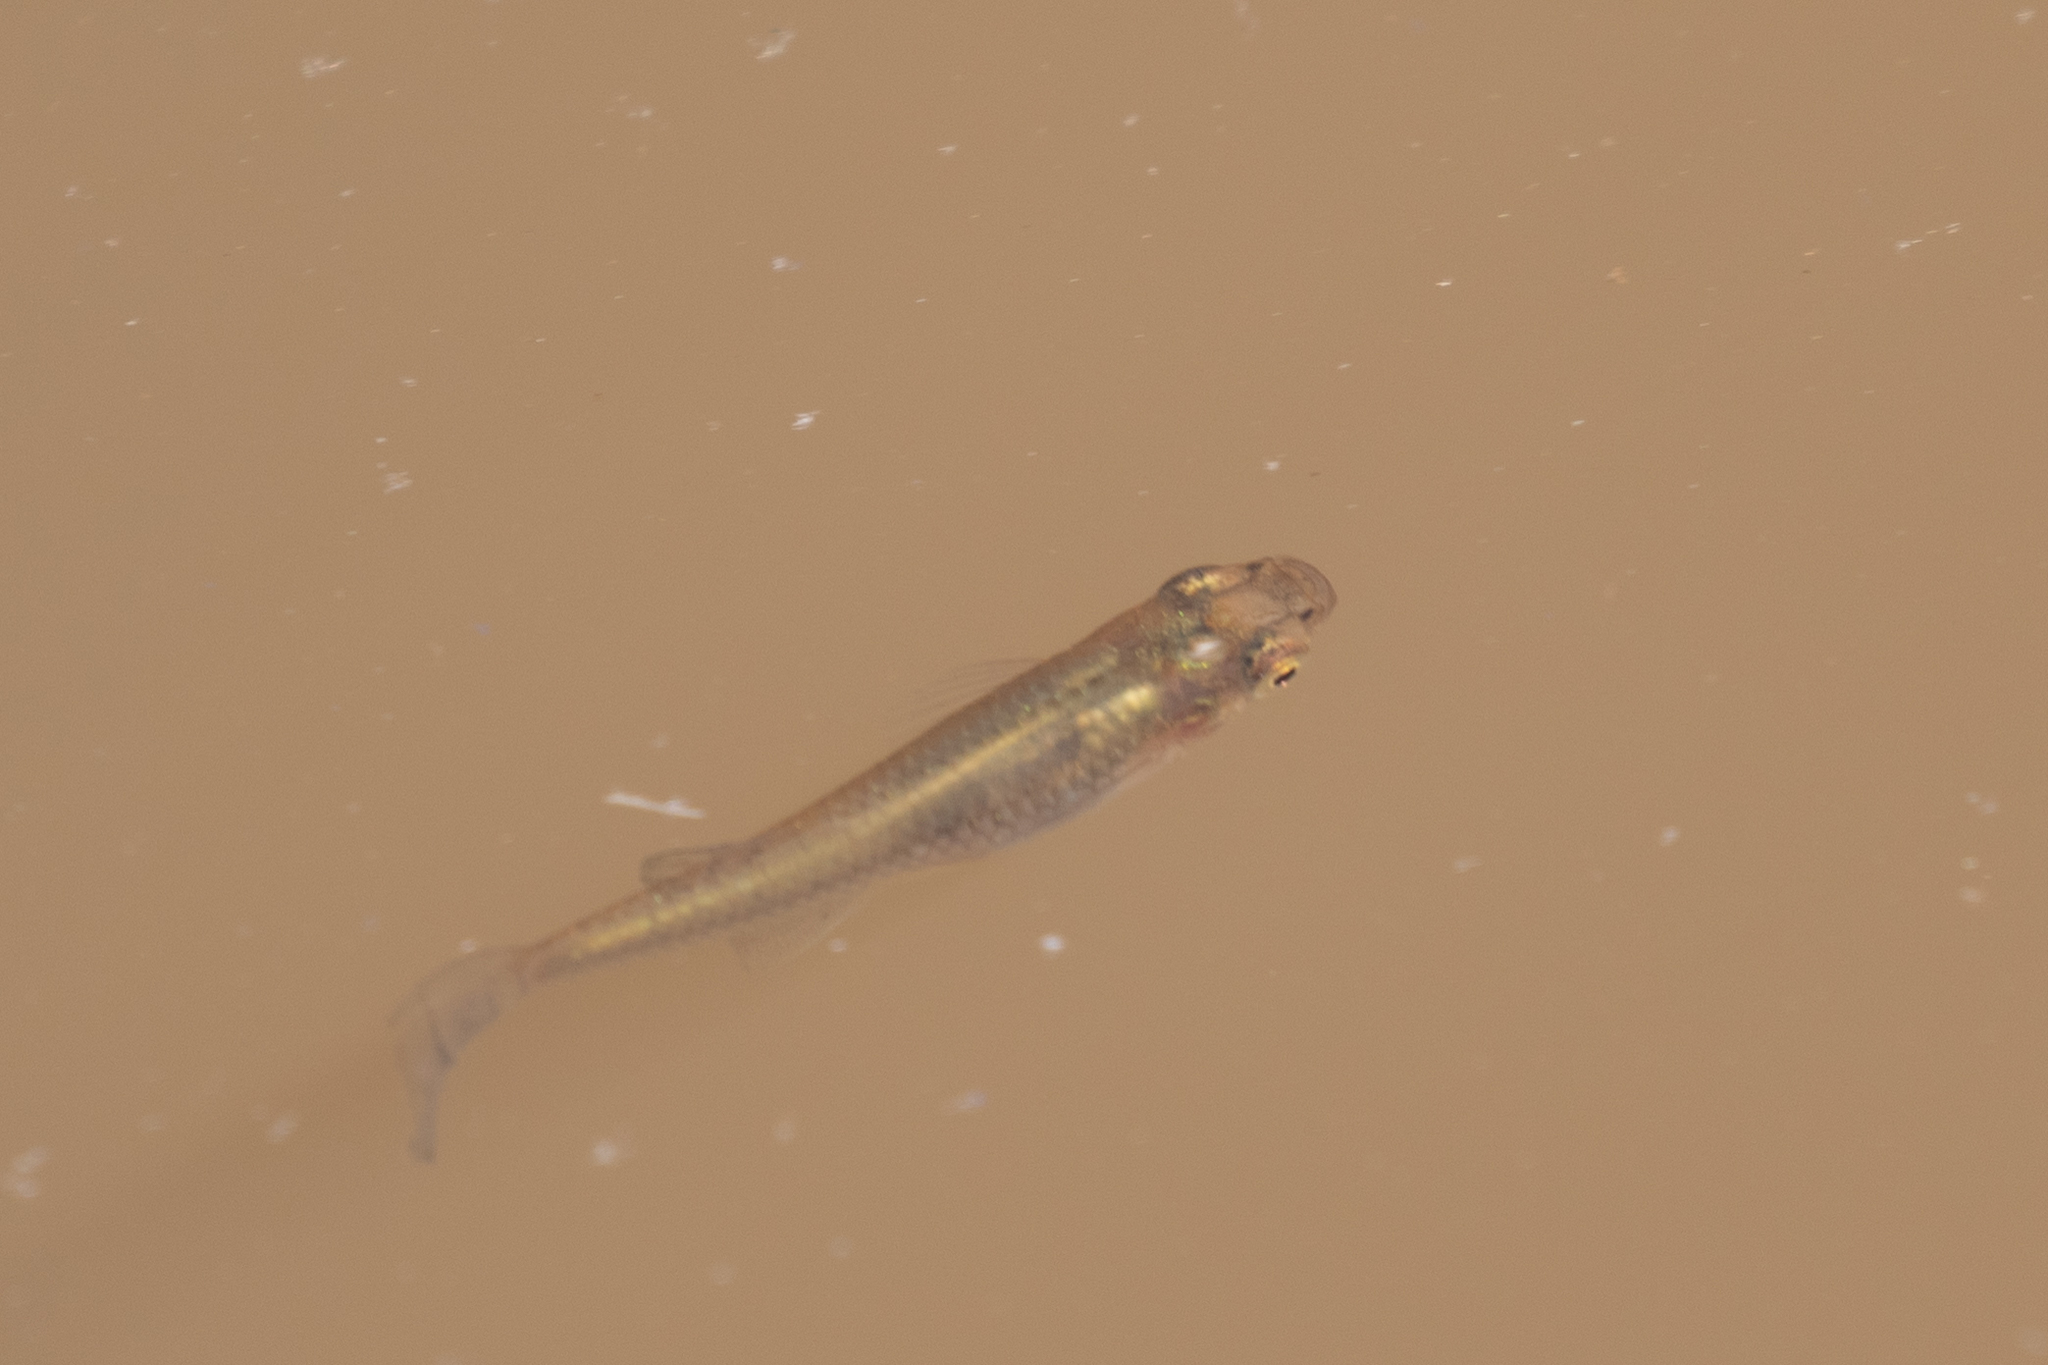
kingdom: Animalia
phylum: Chordata
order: Cyprinodontiformes
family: Poeciliidae
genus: Gambusia
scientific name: Gambusia holbrooki
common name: Eastern mosquitofish
